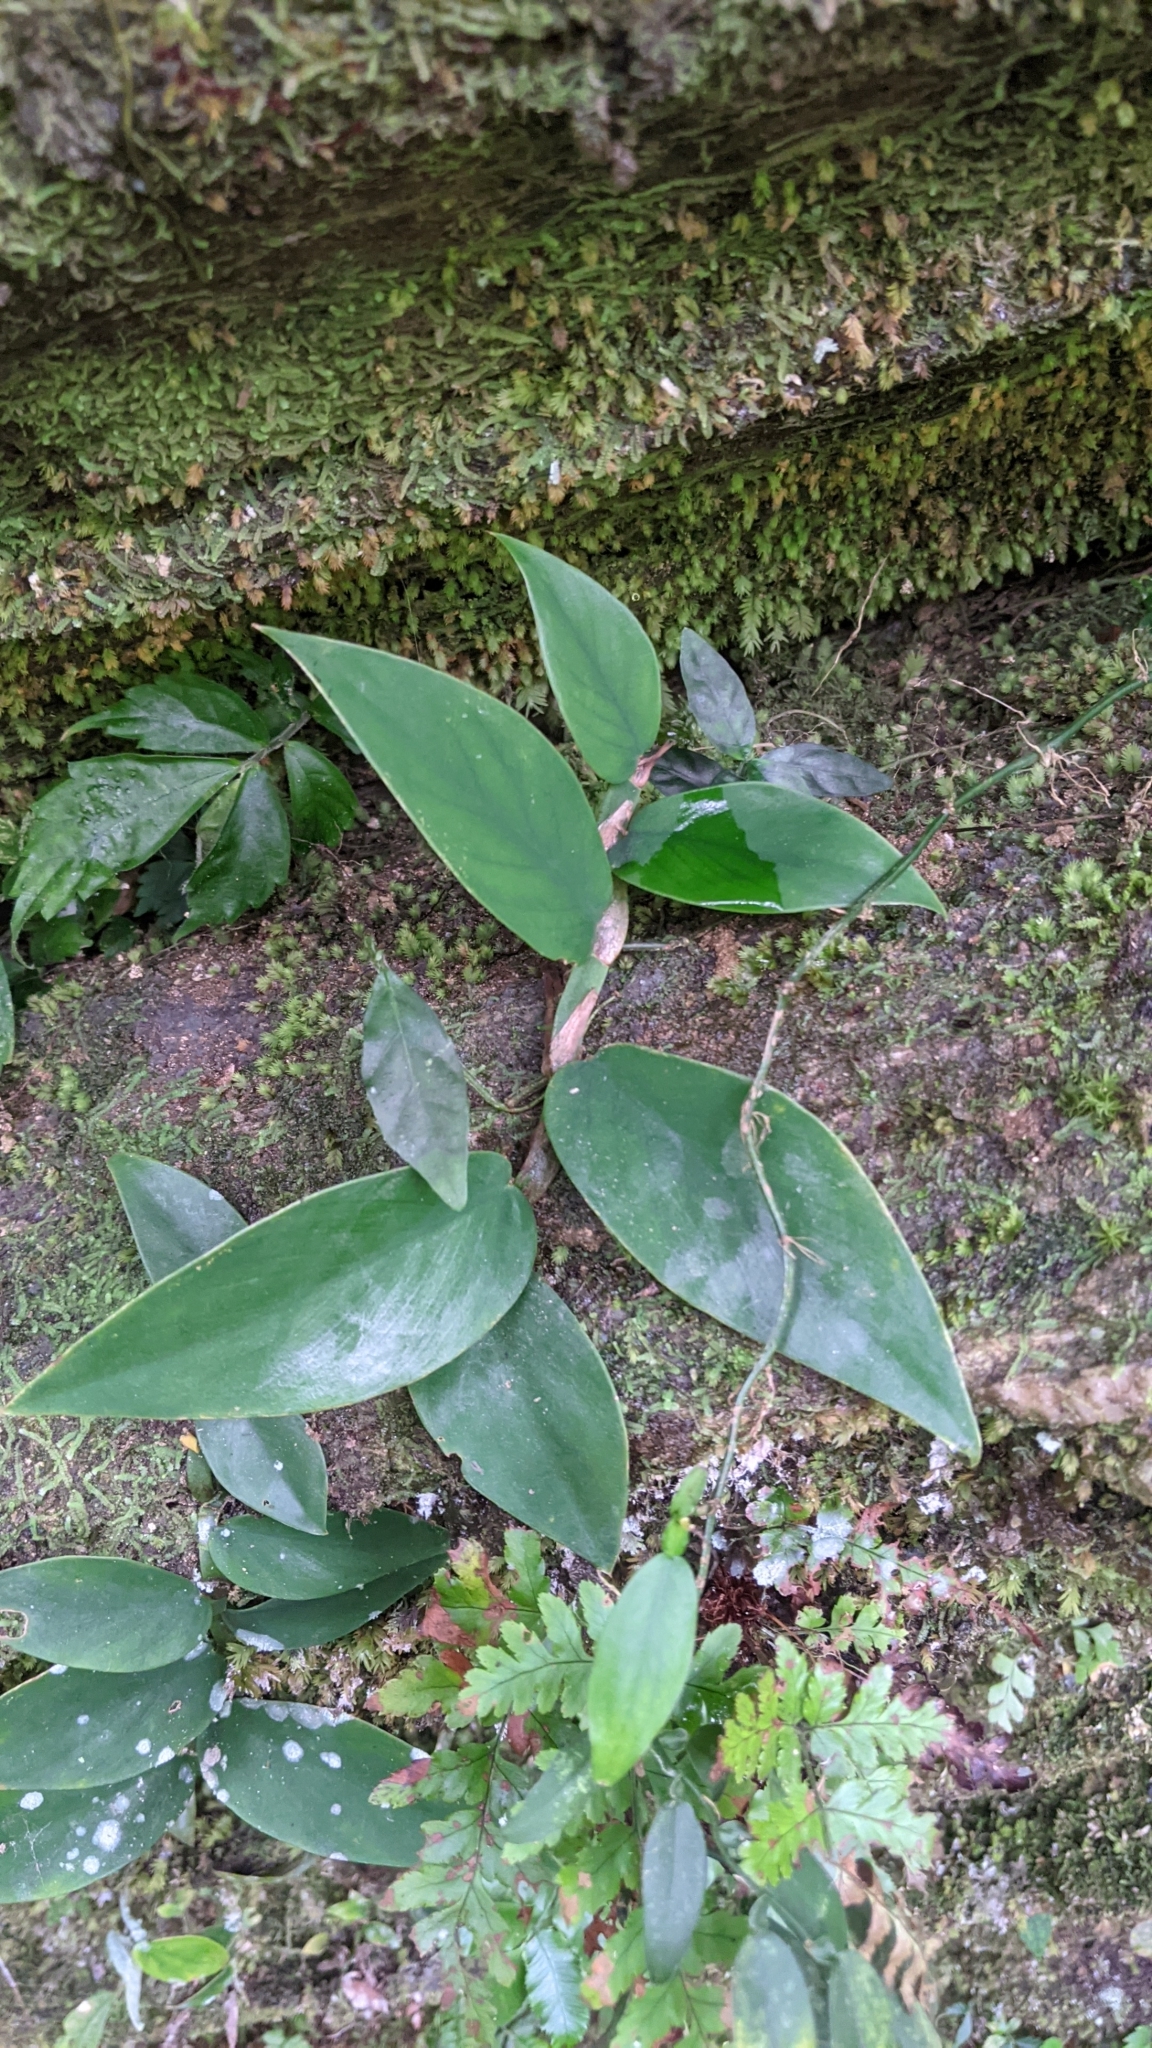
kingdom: Plantae
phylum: Tracheophyta
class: Liliopsida
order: Alismatales
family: Araceae
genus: Rhaphidophora
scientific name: Rhaphidophora hongkongensis
